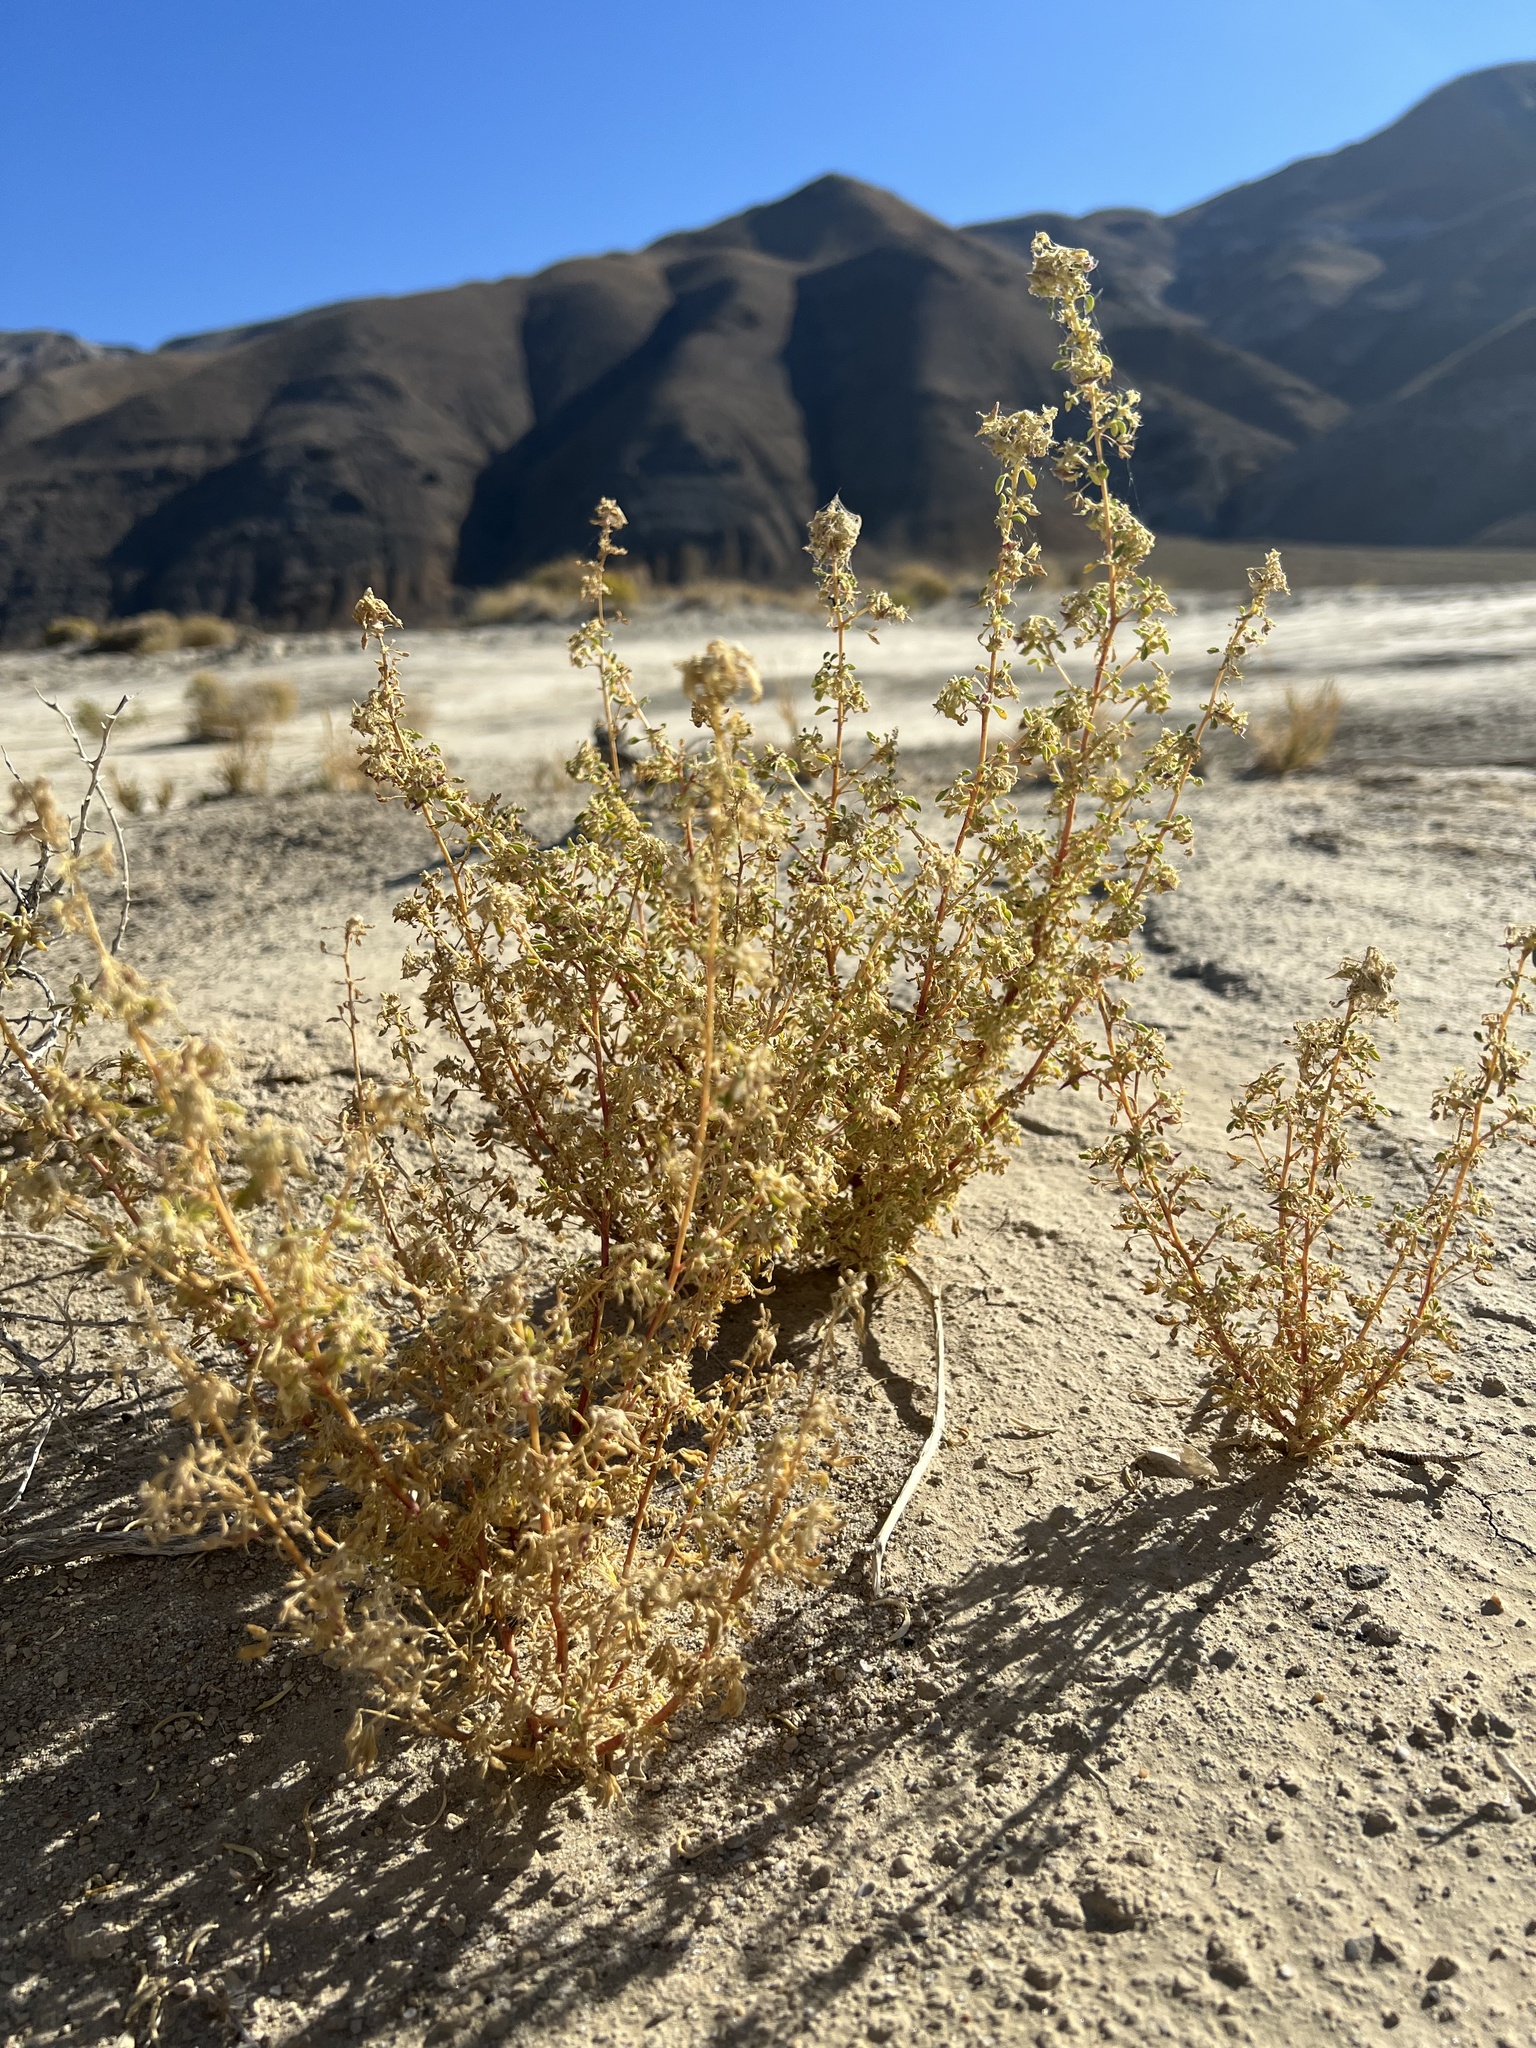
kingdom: Plantae
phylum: Tracheophyta
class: Magnoliopsida
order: Brassicales
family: Cleomaceae
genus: Cleomella
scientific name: Cleomella obtusifolia
